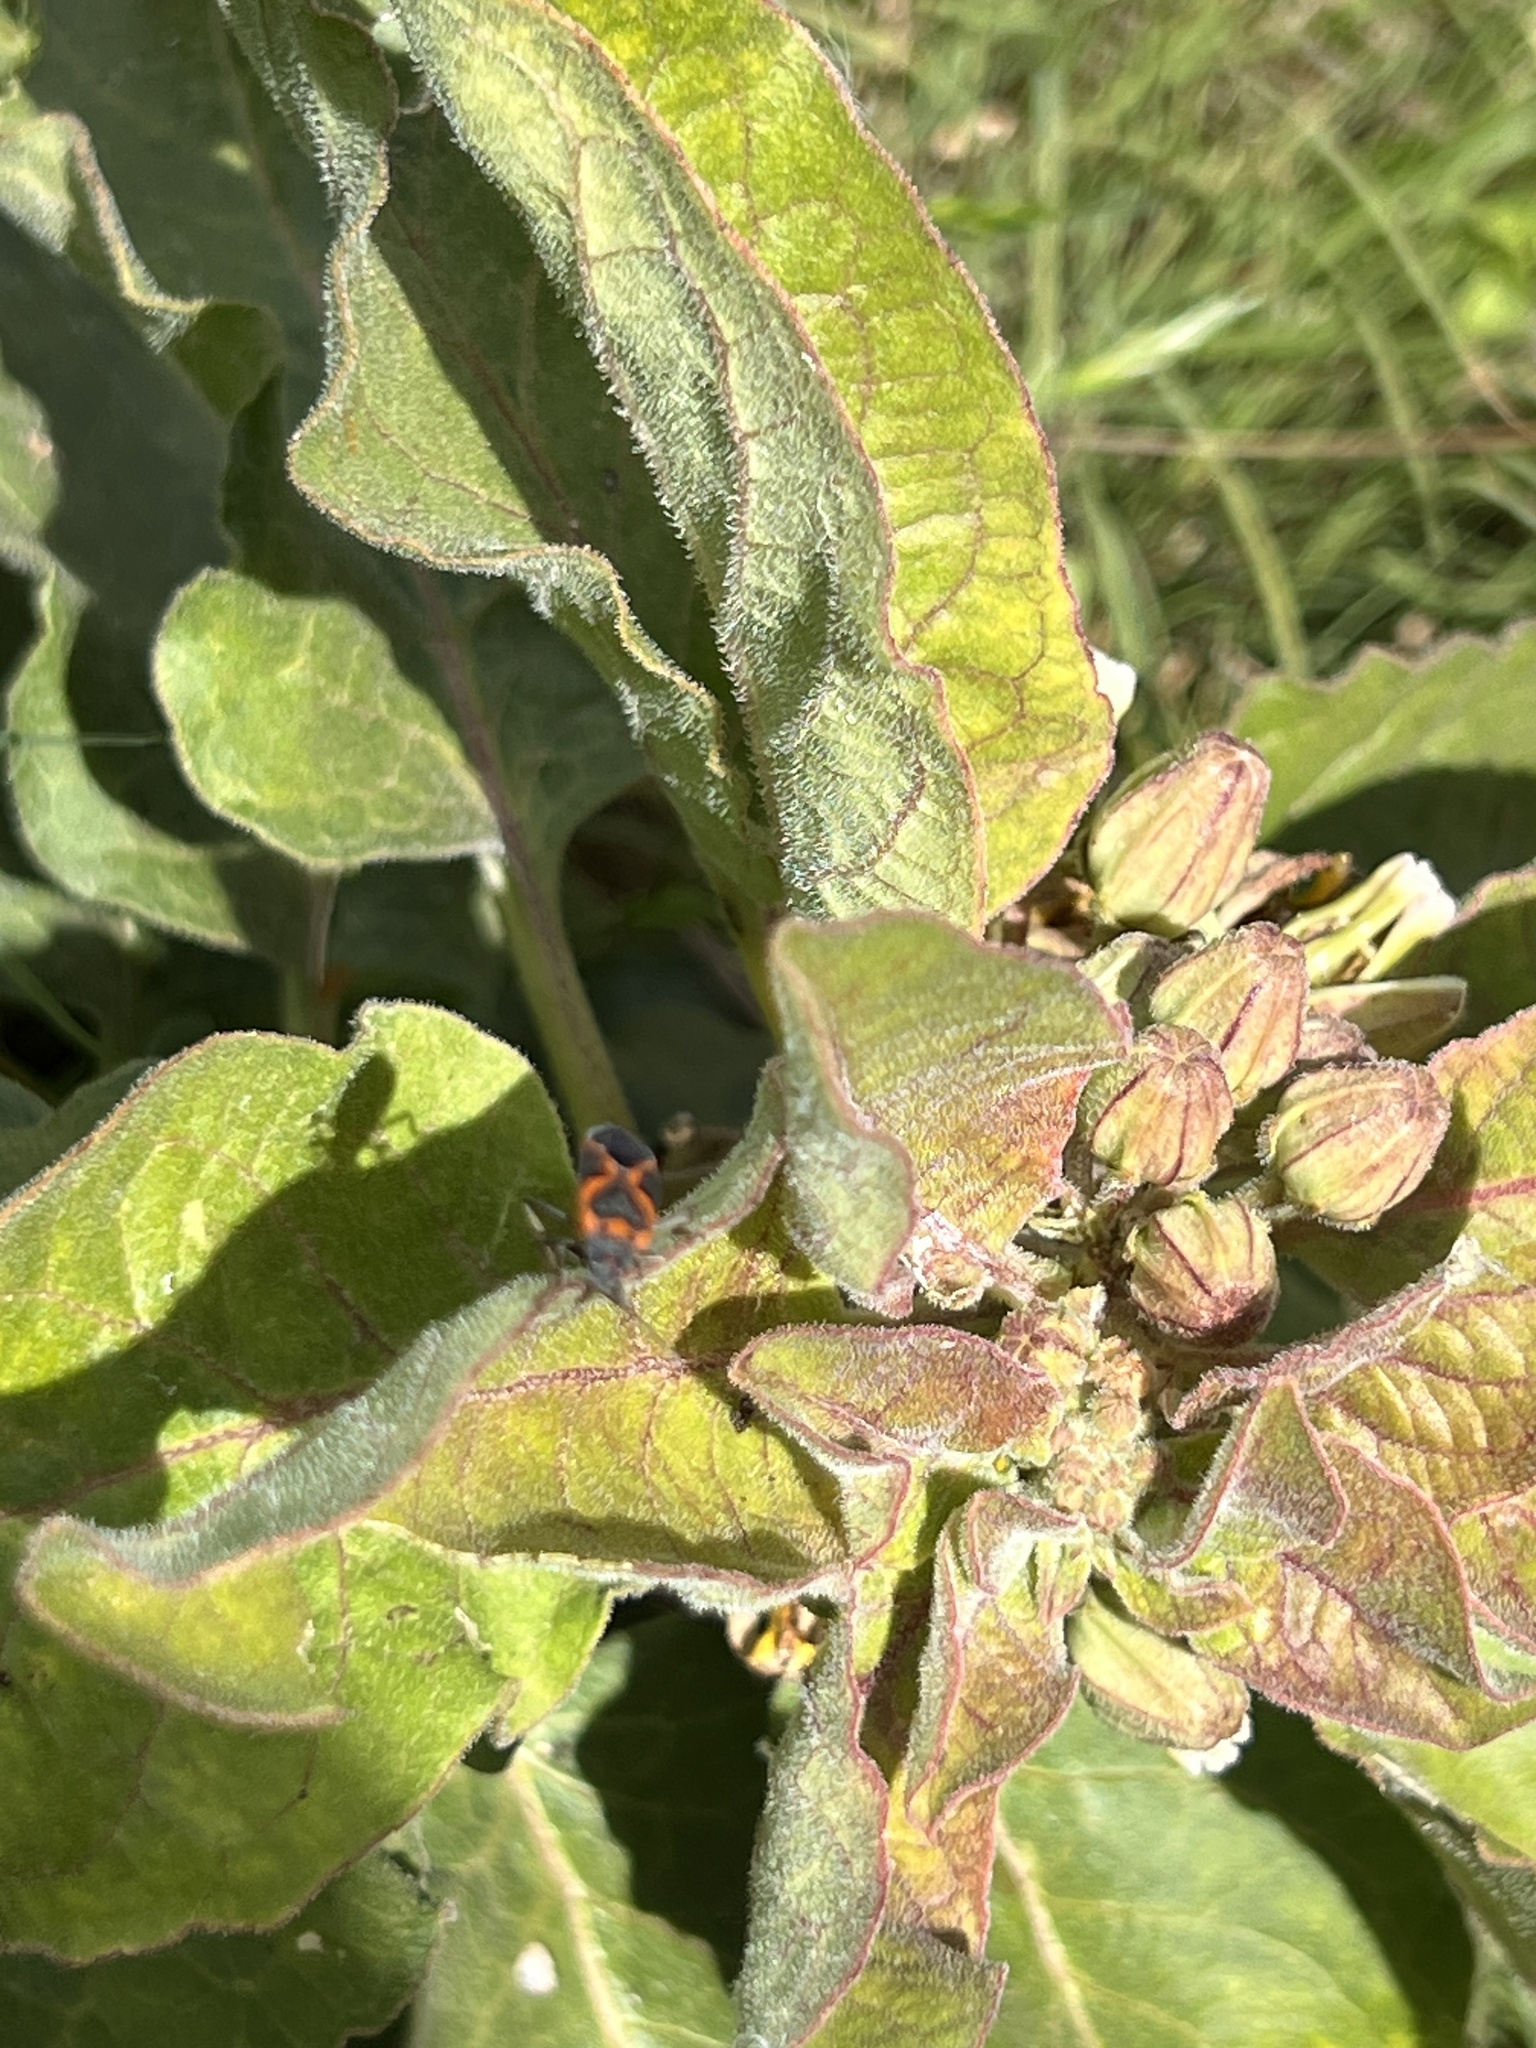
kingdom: Plantae
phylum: Tracheophyta
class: Magnoliopsida
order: Gentianales
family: Apocynaceae
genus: Asclepias
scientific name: Asclepias oenotheroides
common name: Zizotes milkweed
